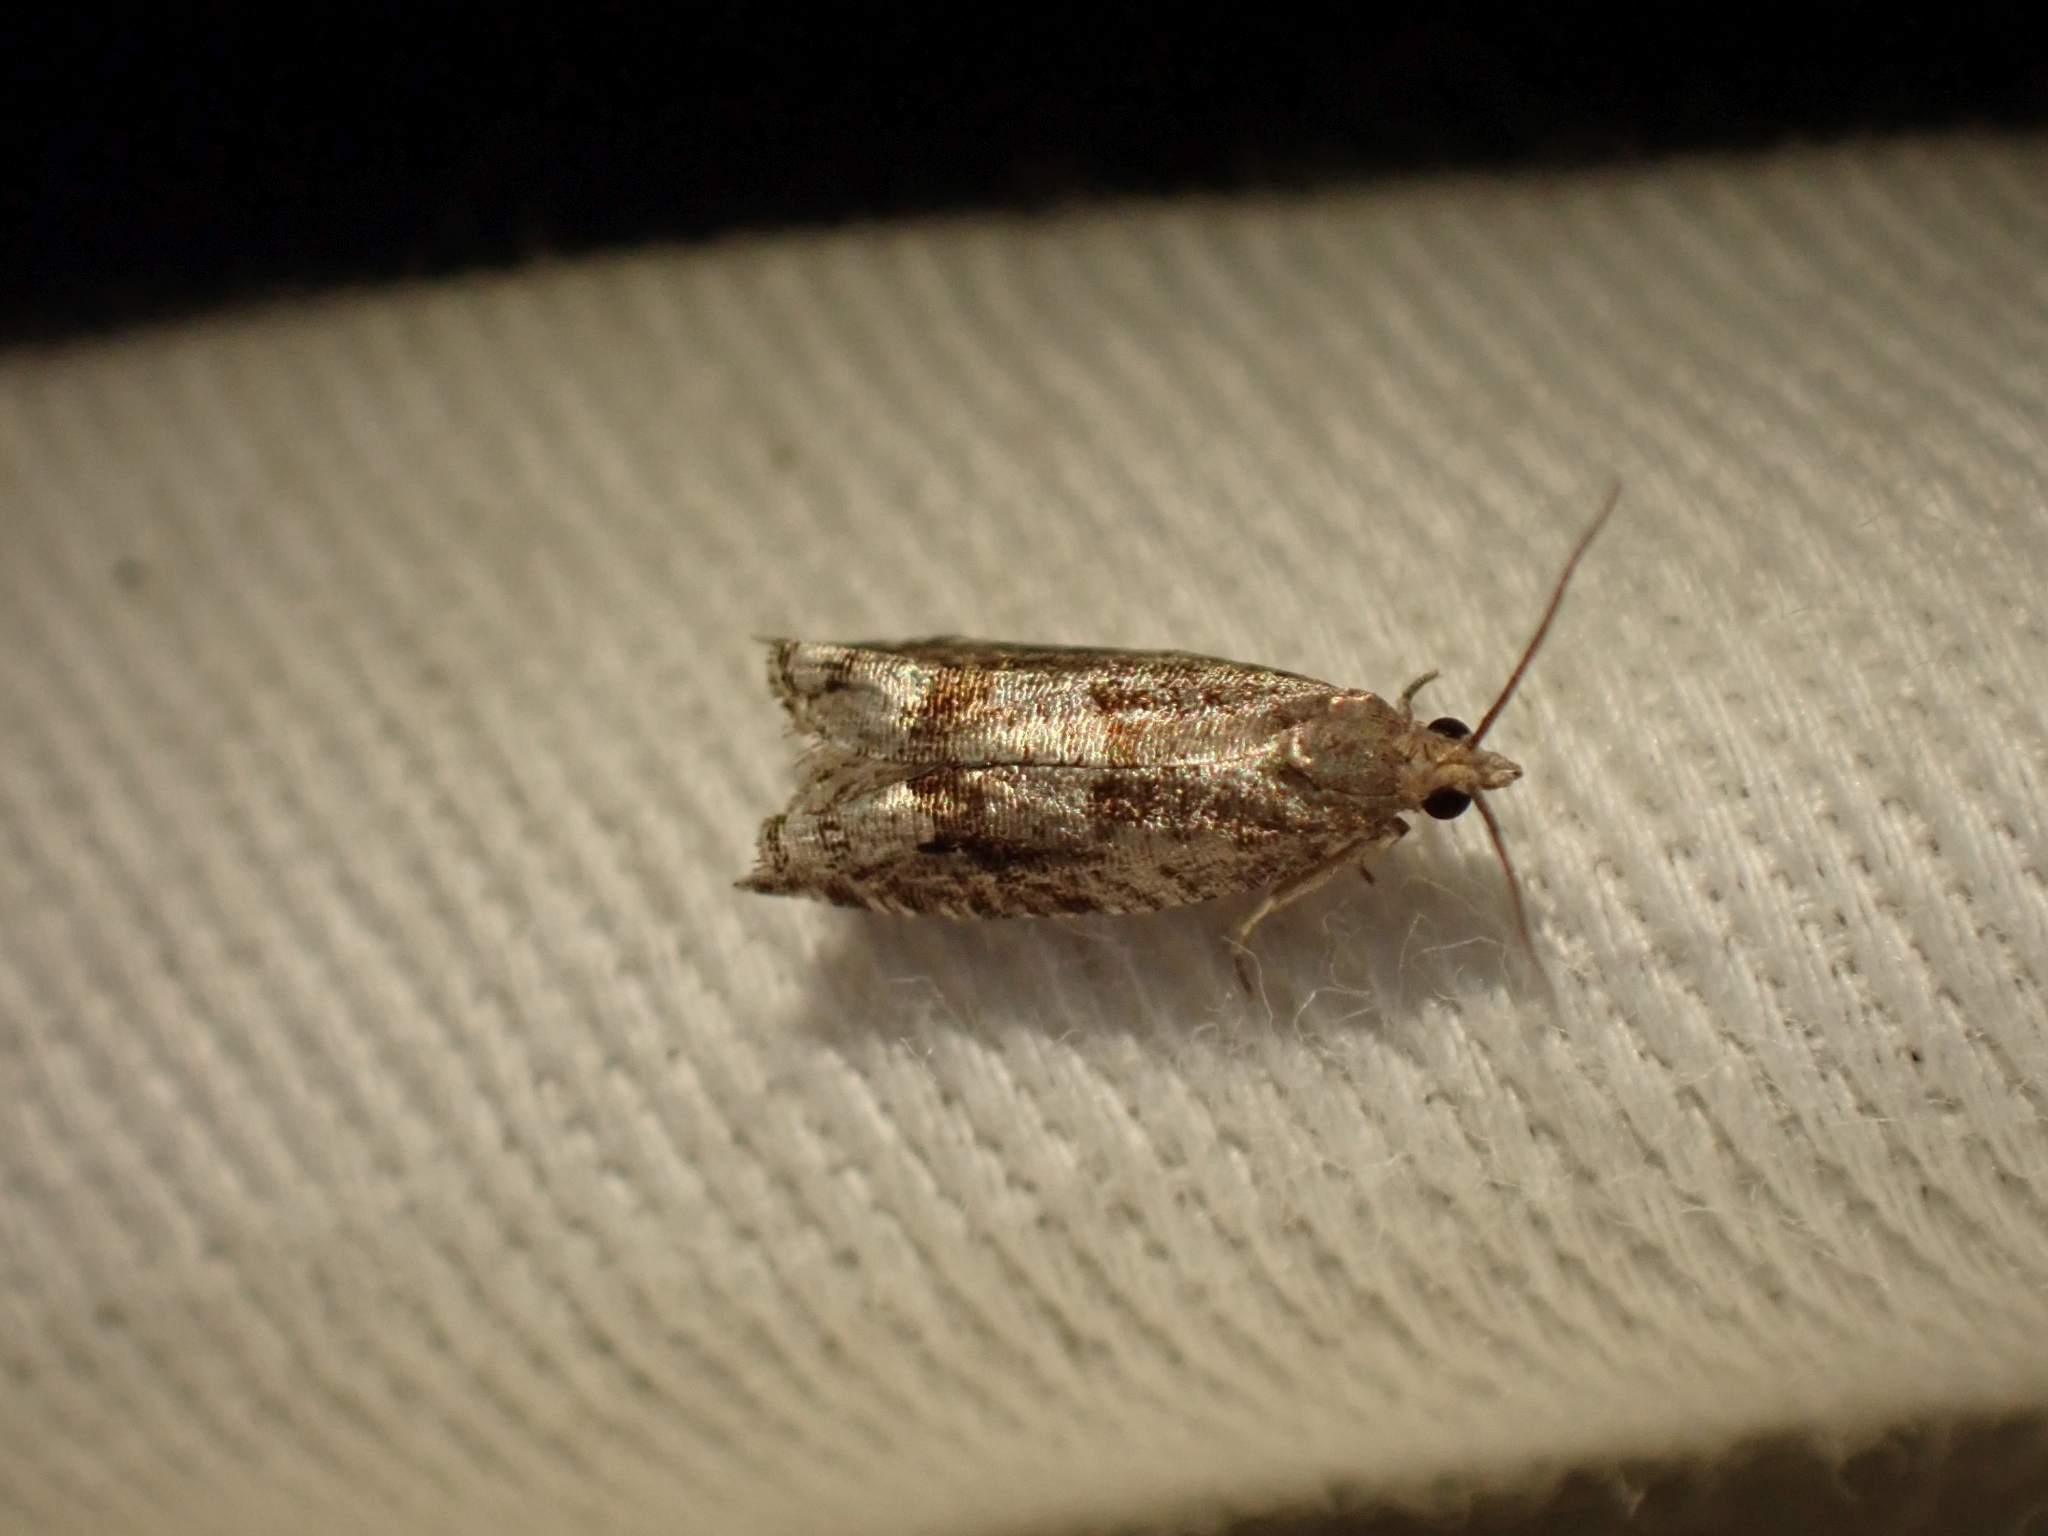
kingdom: Animalia
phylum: Arthropoda
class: Insecta
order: Lepidoptera
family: Tortricidae
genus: Ancylis
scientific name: Ancylis uncella
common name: Bridge roller
